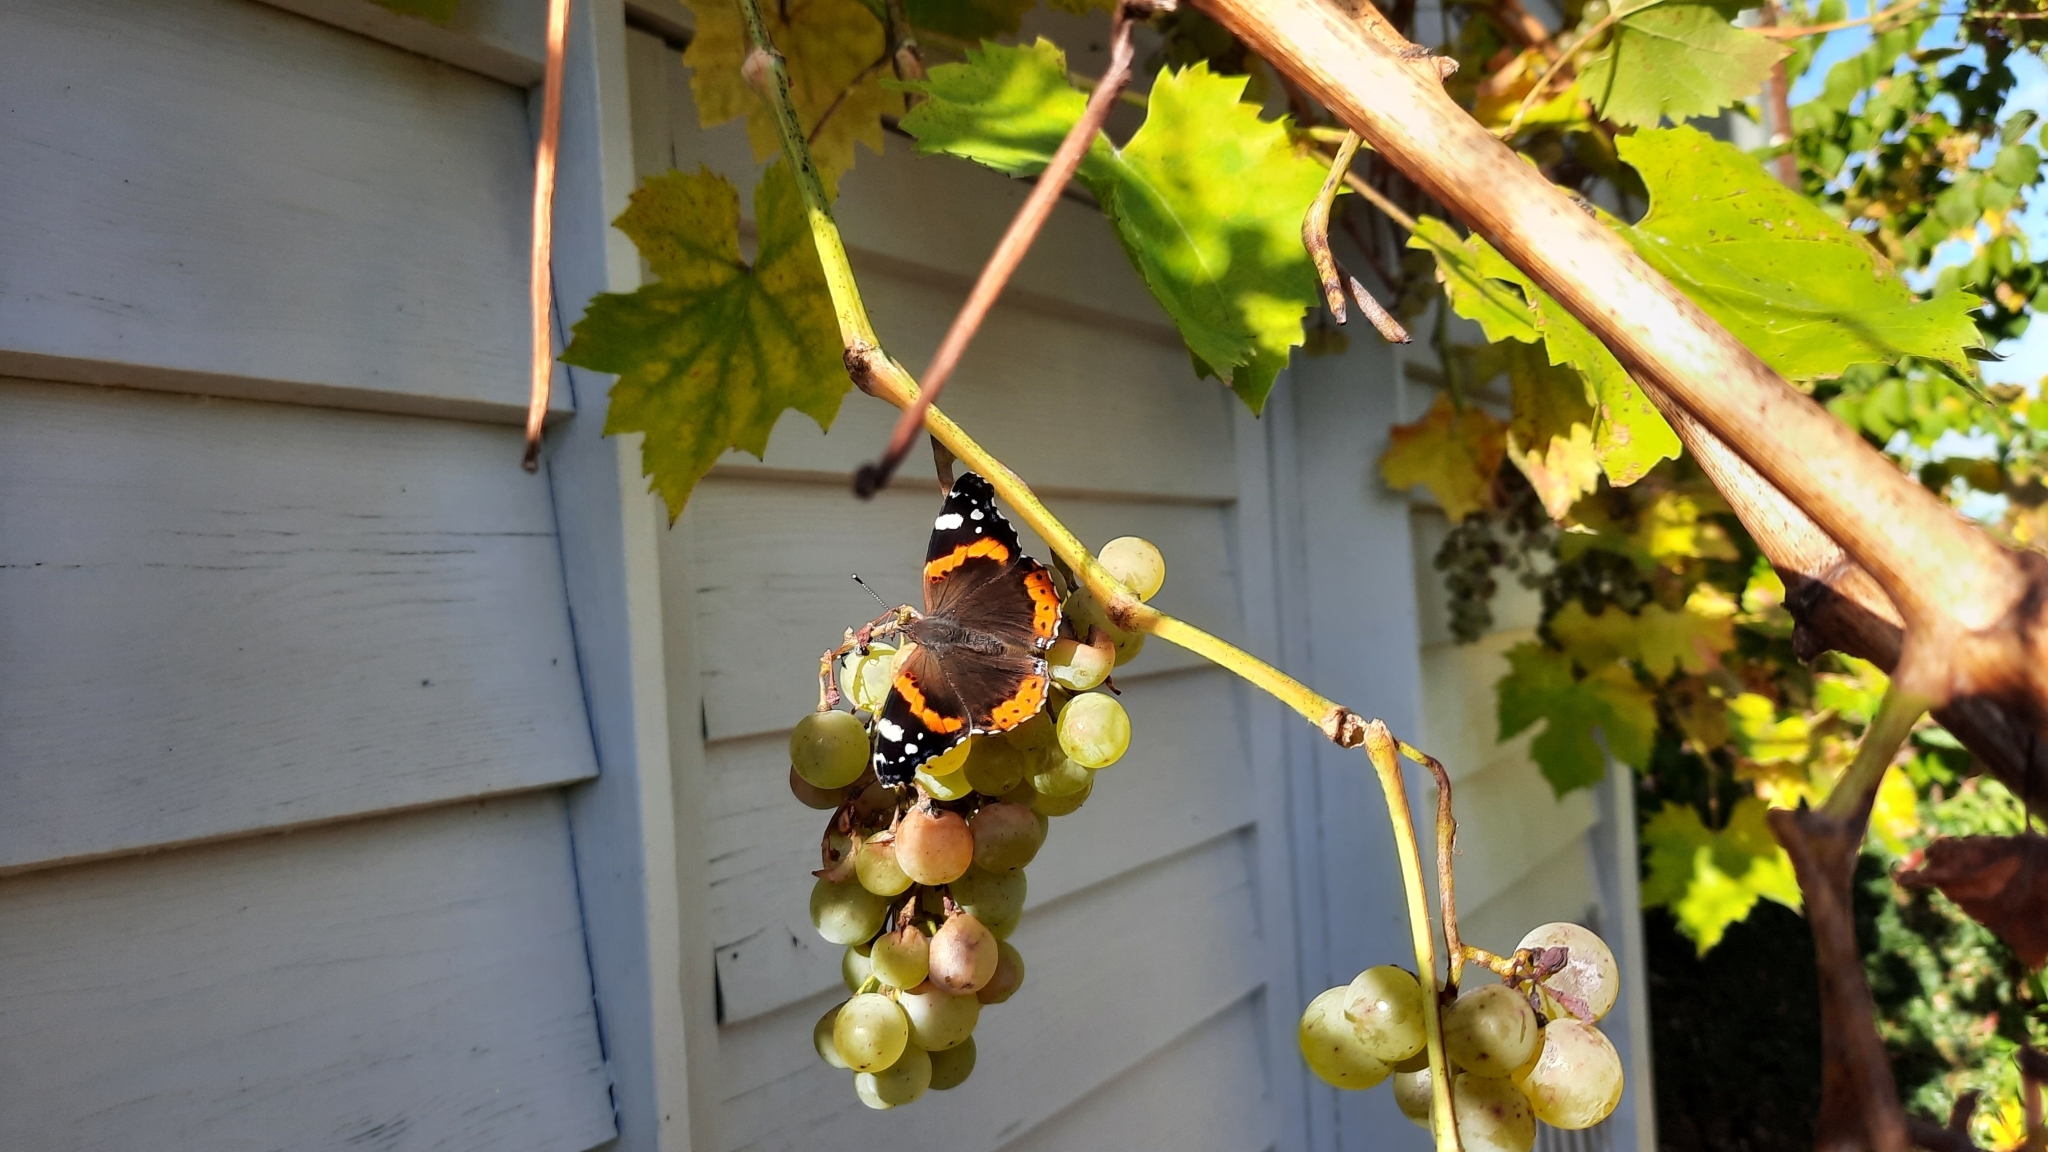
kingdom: Animalia
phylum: Arthropoda
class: Insecta
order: Lepidoptera
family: Nymphalidae
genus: Vanessa
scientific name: Vanessa atalanta
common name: Red admiral
